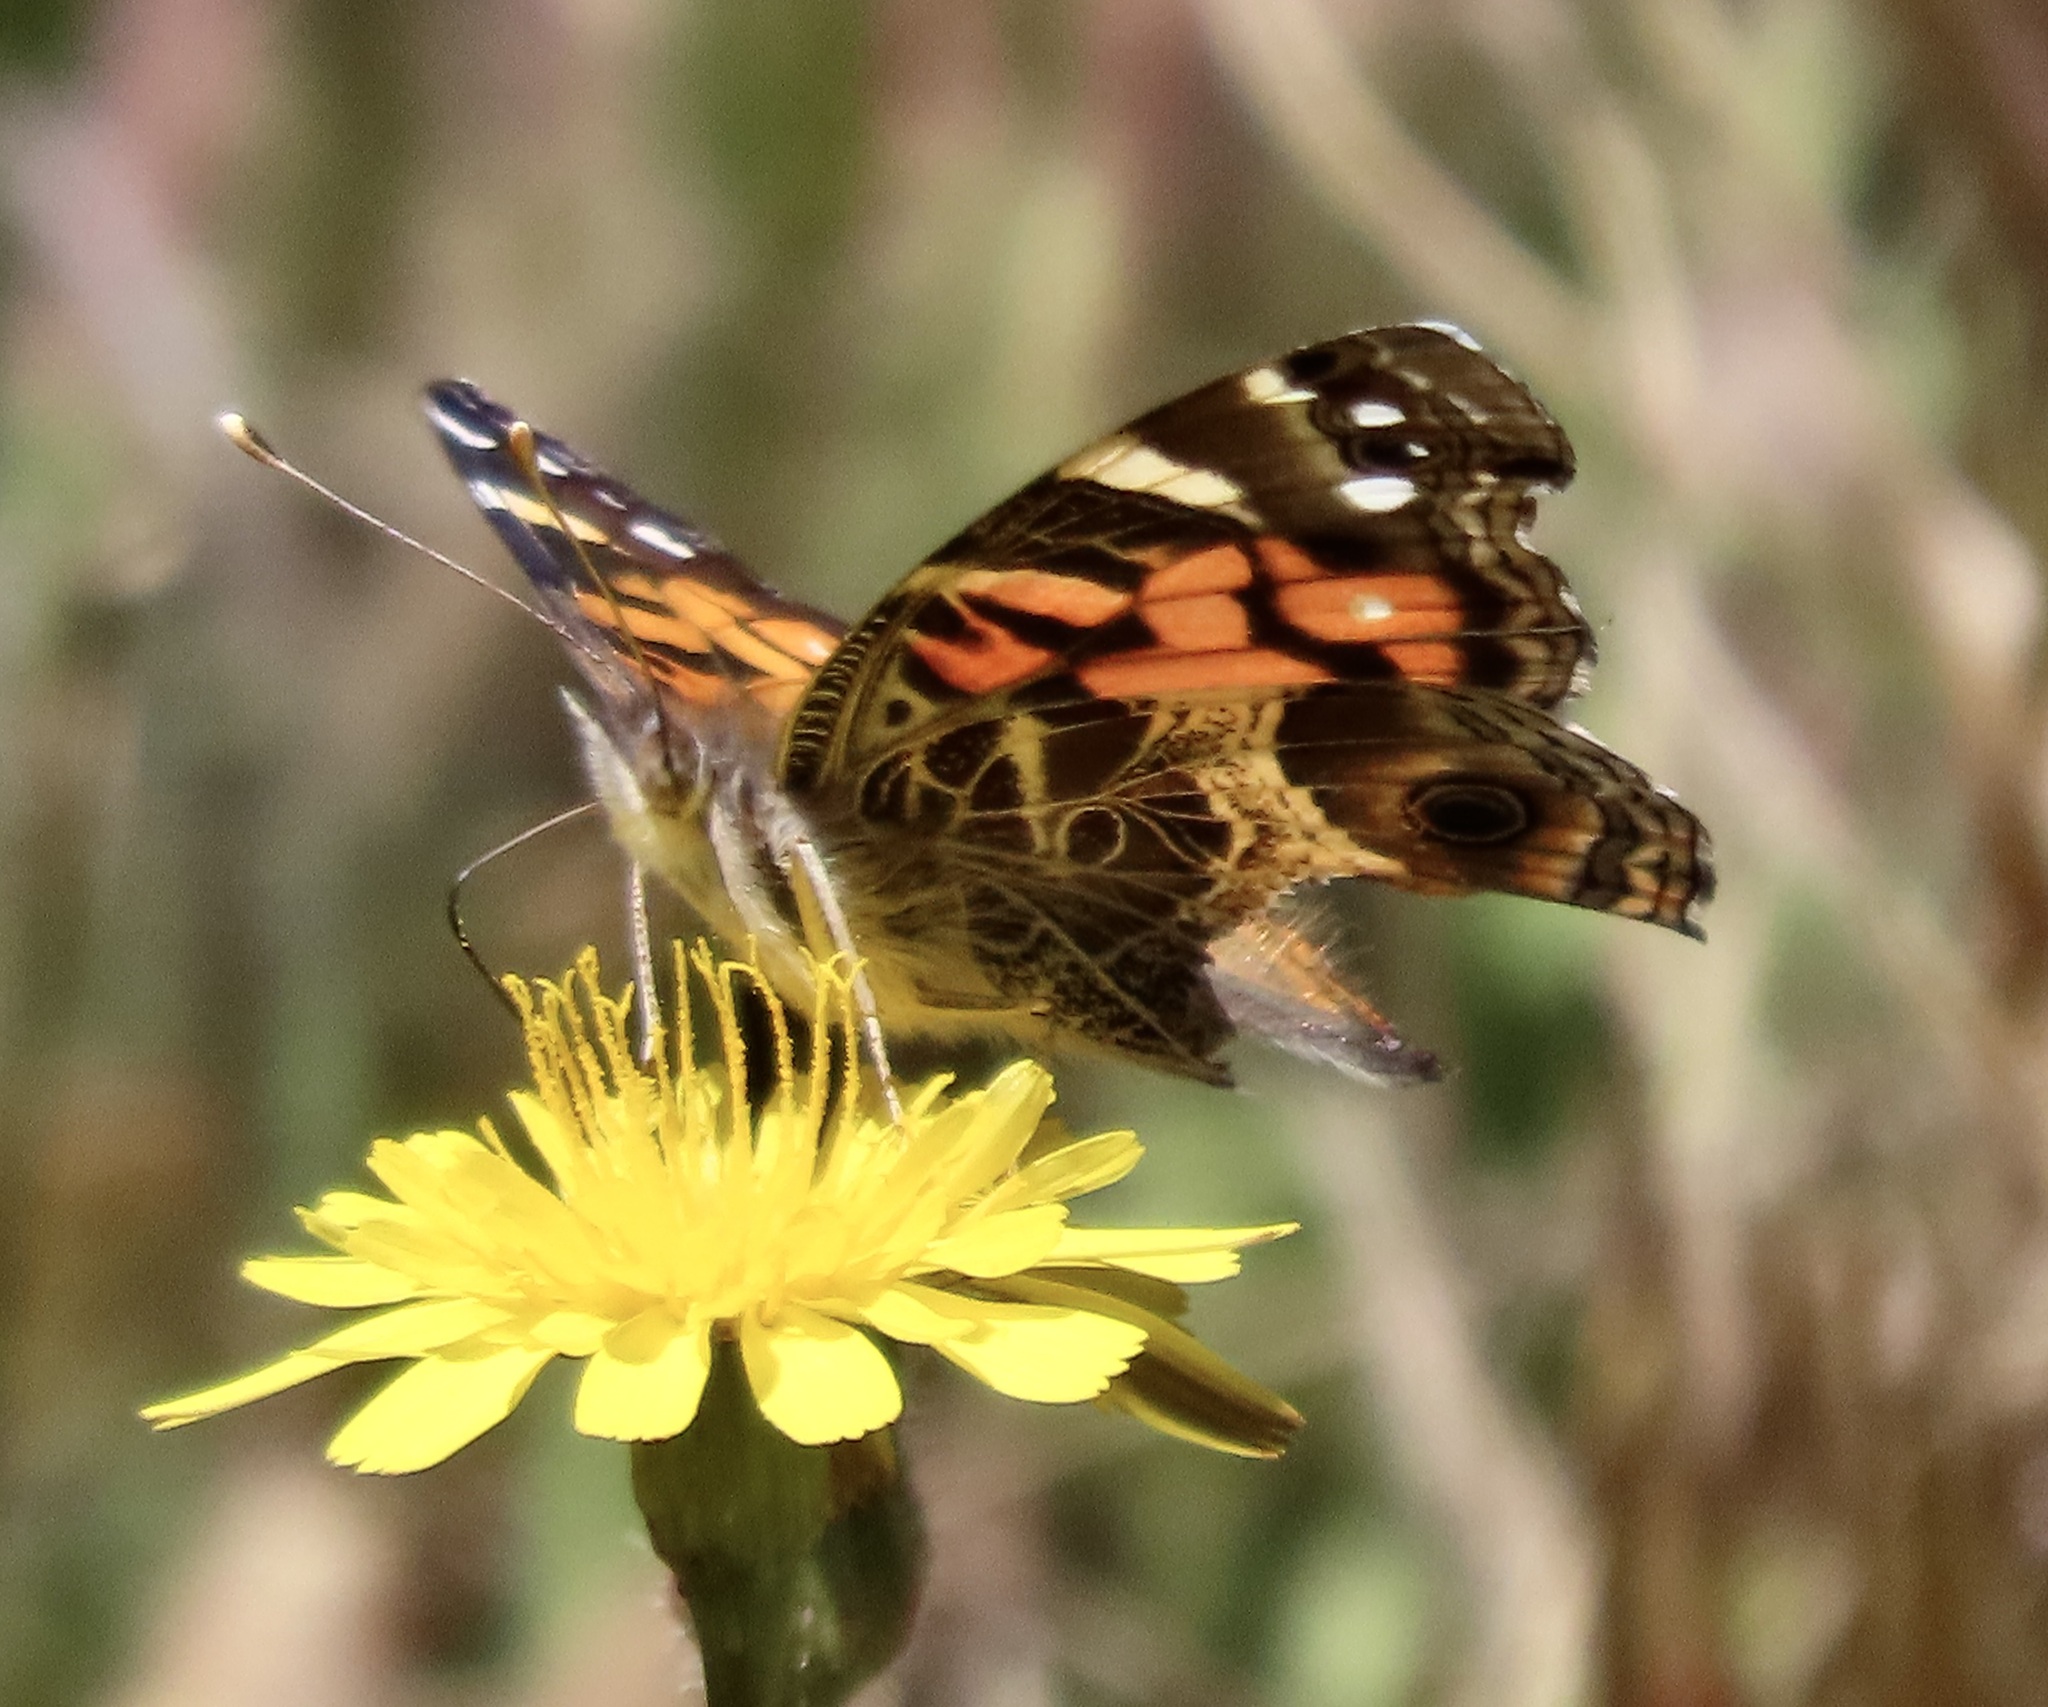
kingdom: Animalia
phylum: Arthropoda
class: Insecta
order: Lepidoptera
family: Nymphalidae
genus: Vanessa
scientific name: Vanessa virginiensis
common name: American lady
